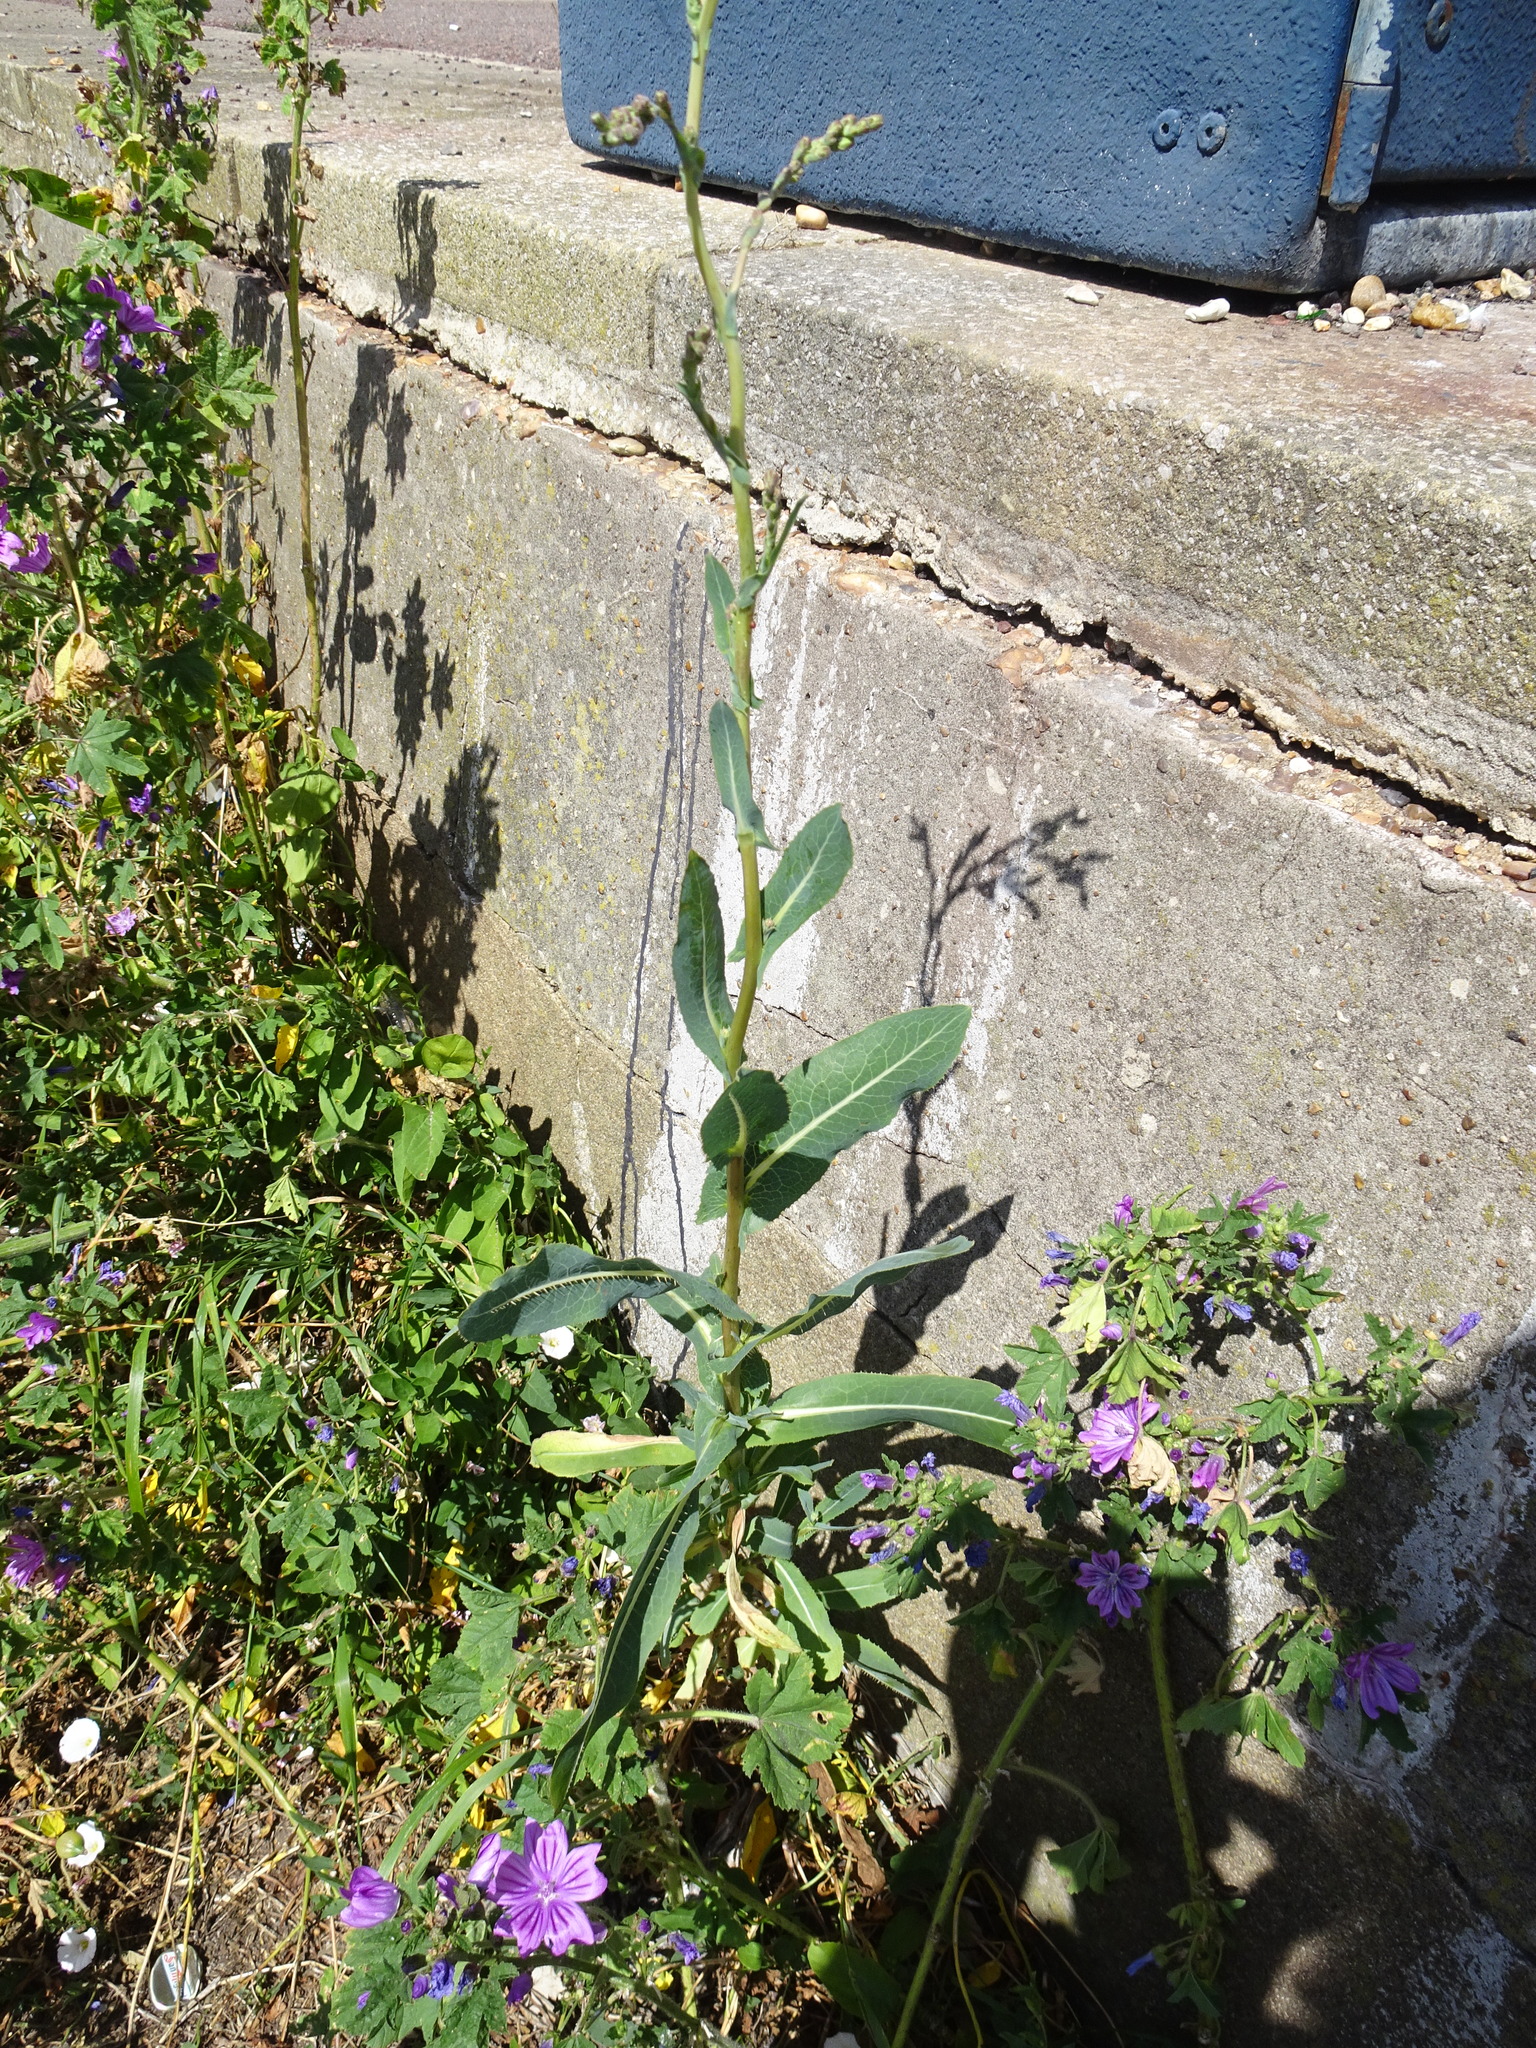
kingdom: Plantae
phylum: Tracheophyta
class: Magnoliopsida
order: Asterales
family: Asteraceae
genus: Lactuca
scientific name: Lactuca serriola
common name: Prickly lettuce
